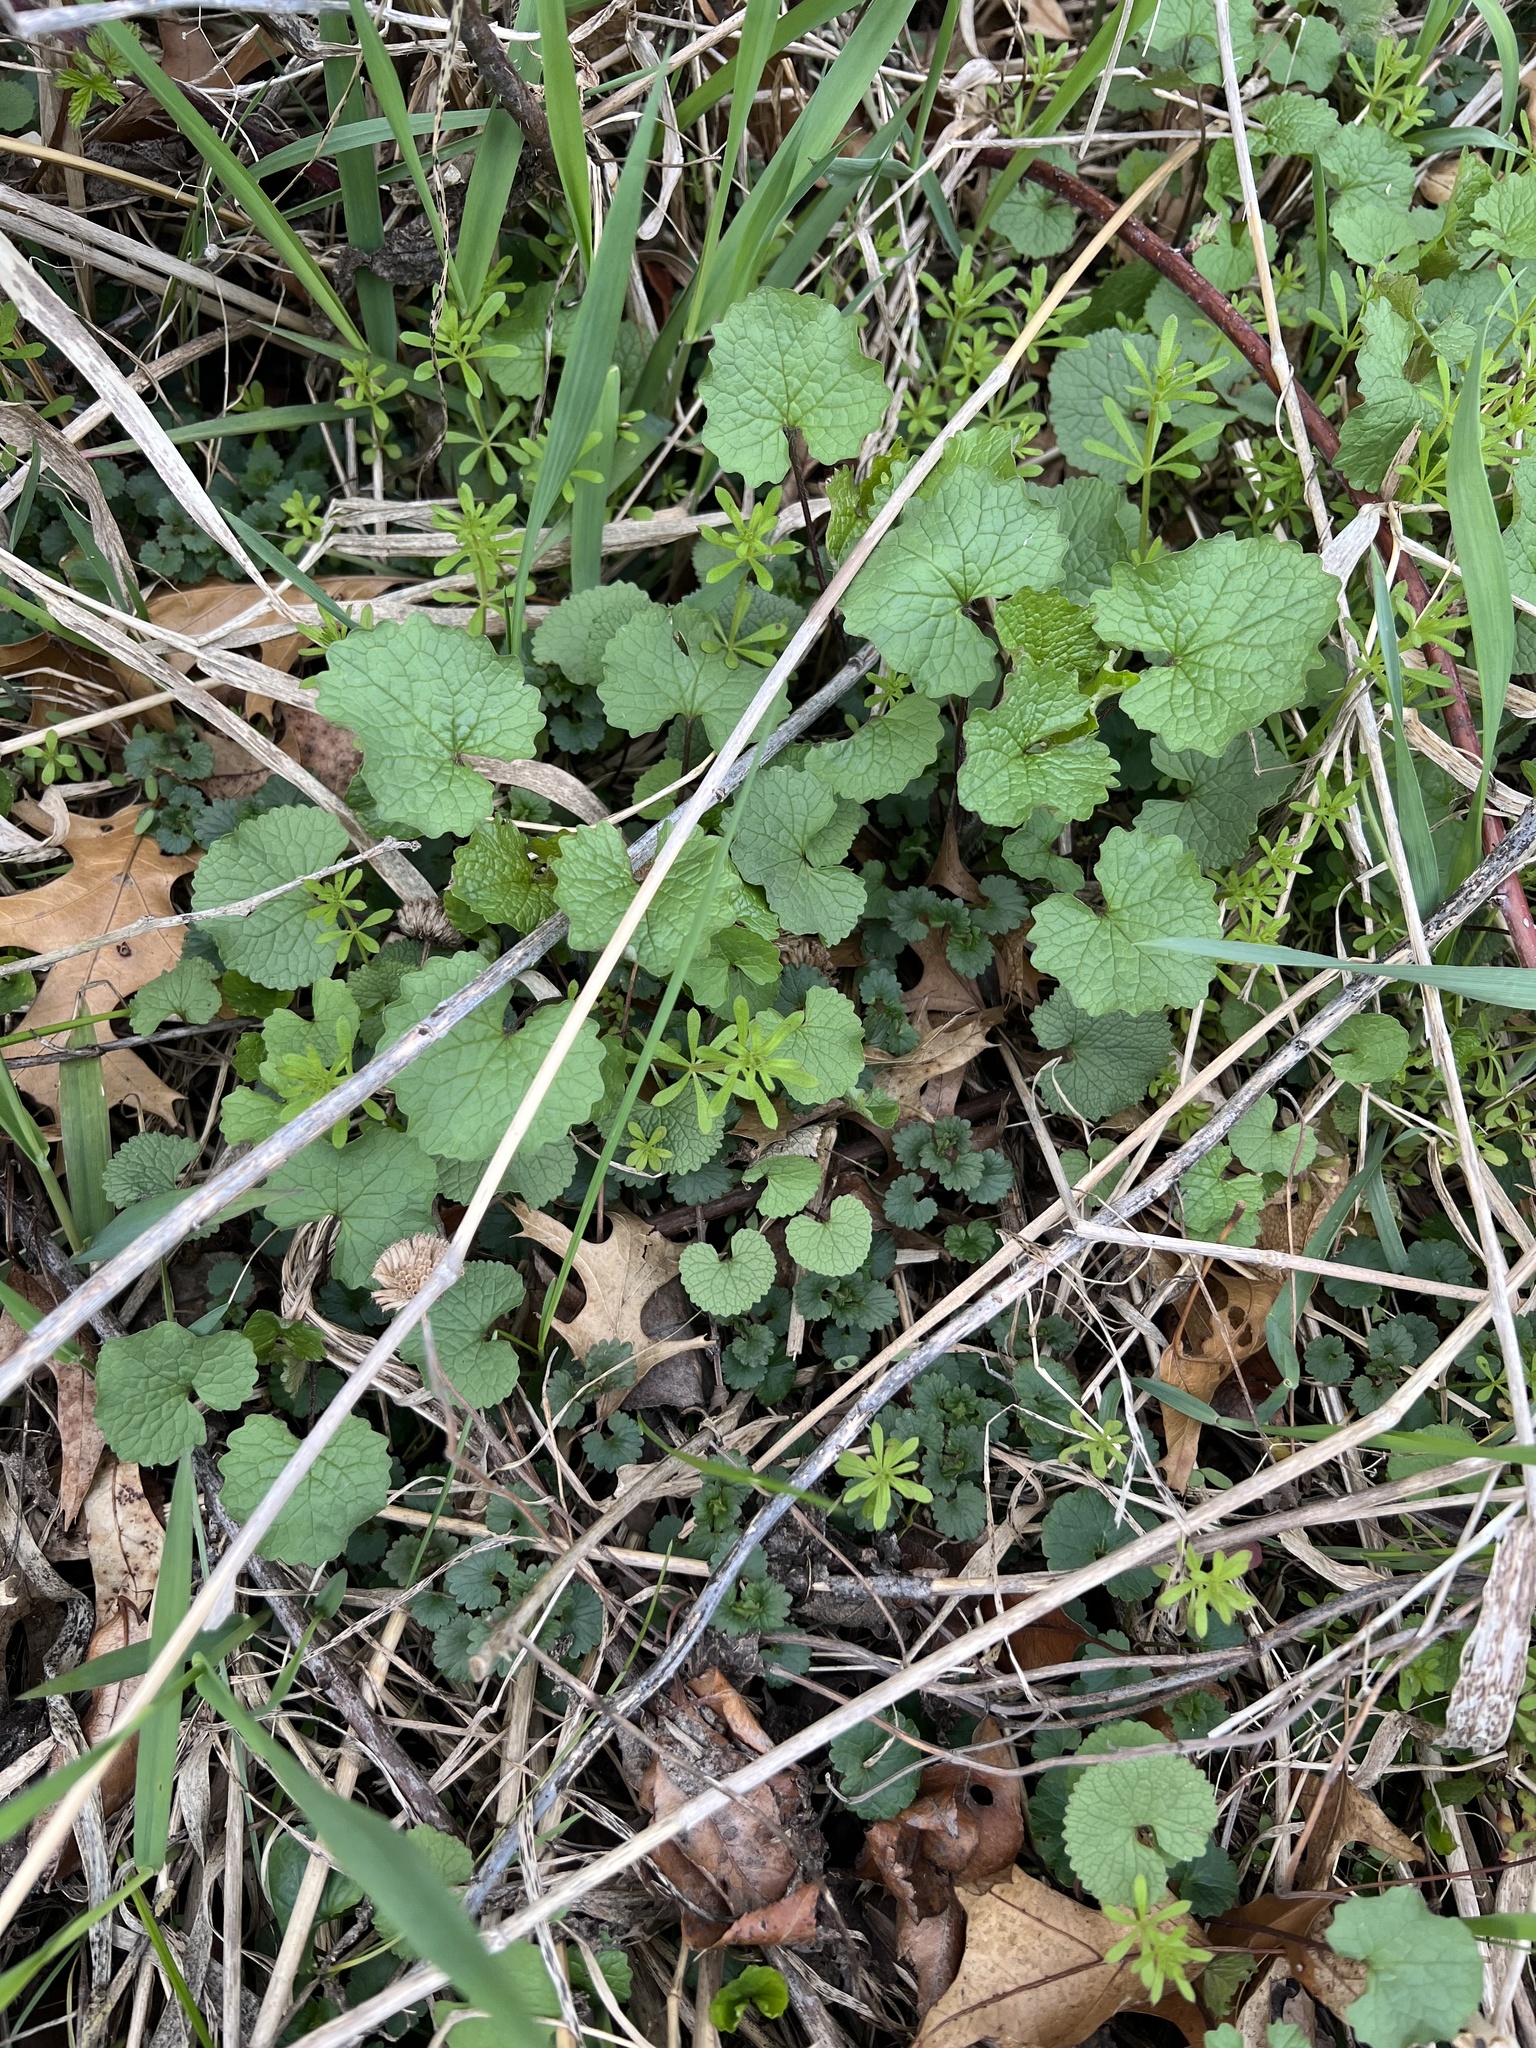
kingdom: Plantae
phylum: Tracheophyta
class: Magnoliopsida
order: Brassicales
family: Brassicaceae
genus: Alliaria
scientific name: Alliaria petiolata
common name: Garlic mustard
